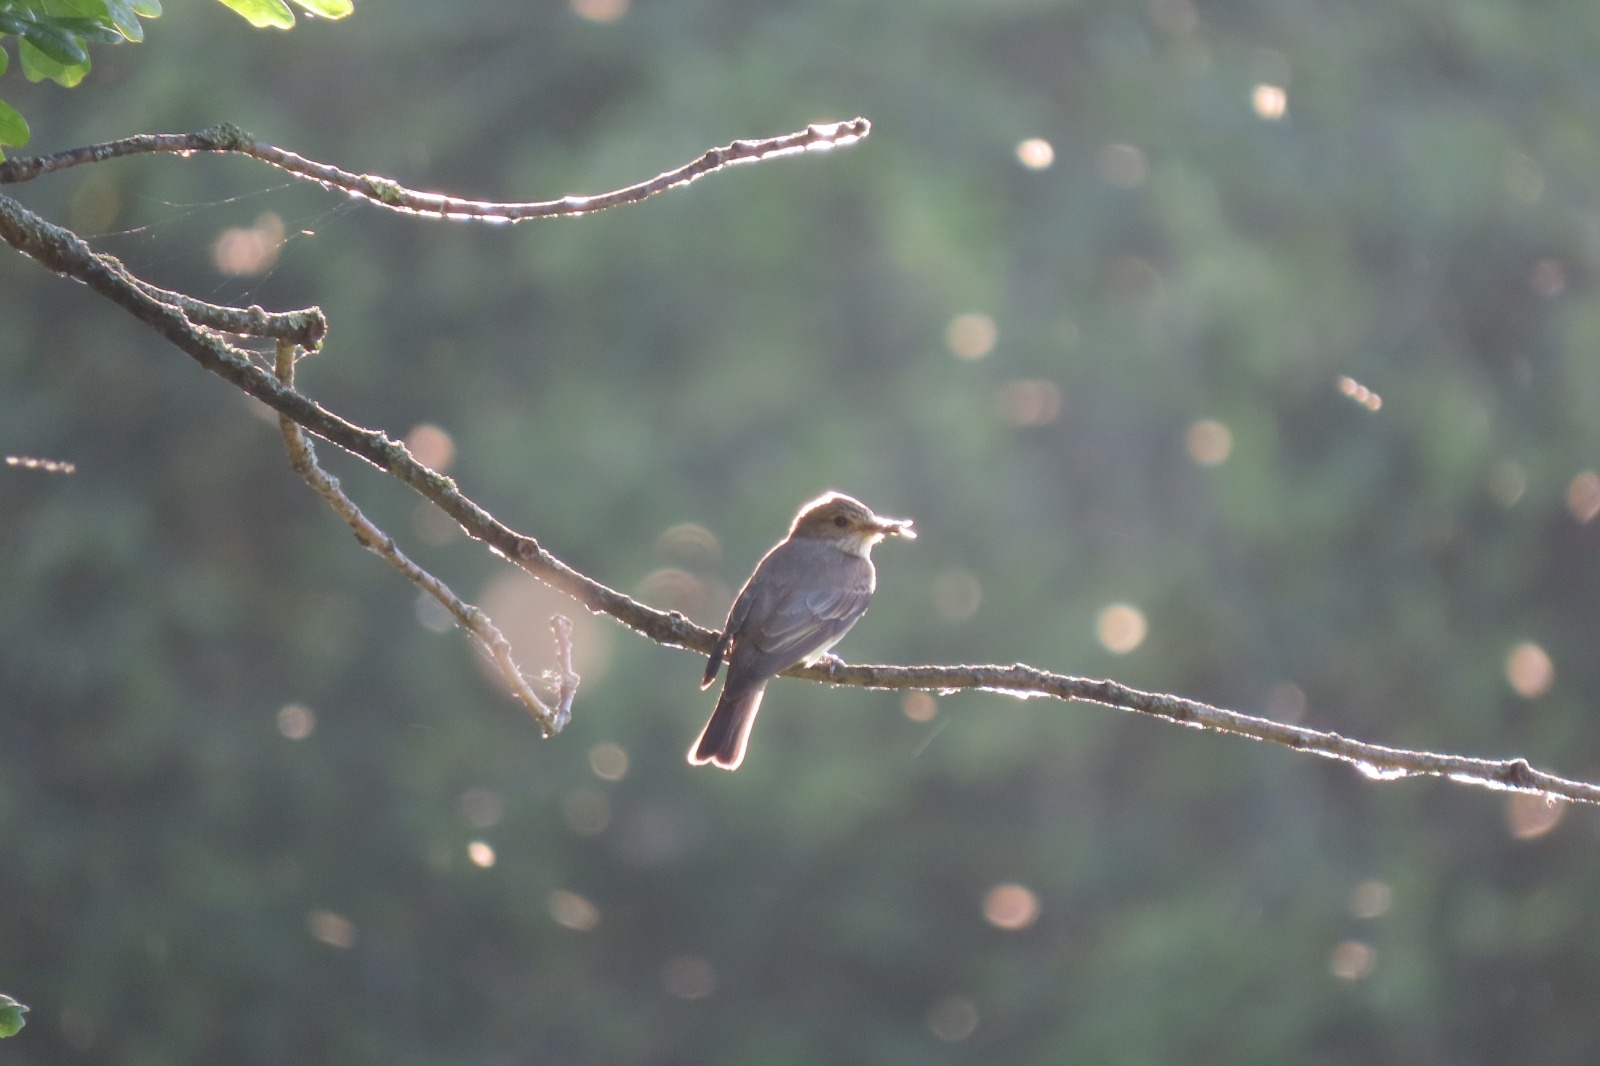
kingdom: Animalia
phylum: Chordata
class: Aves
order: Passeriformes
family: Muscicapidae
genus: Muscicapa
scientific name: Muscicapa striata
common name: Spotted flycatcher
